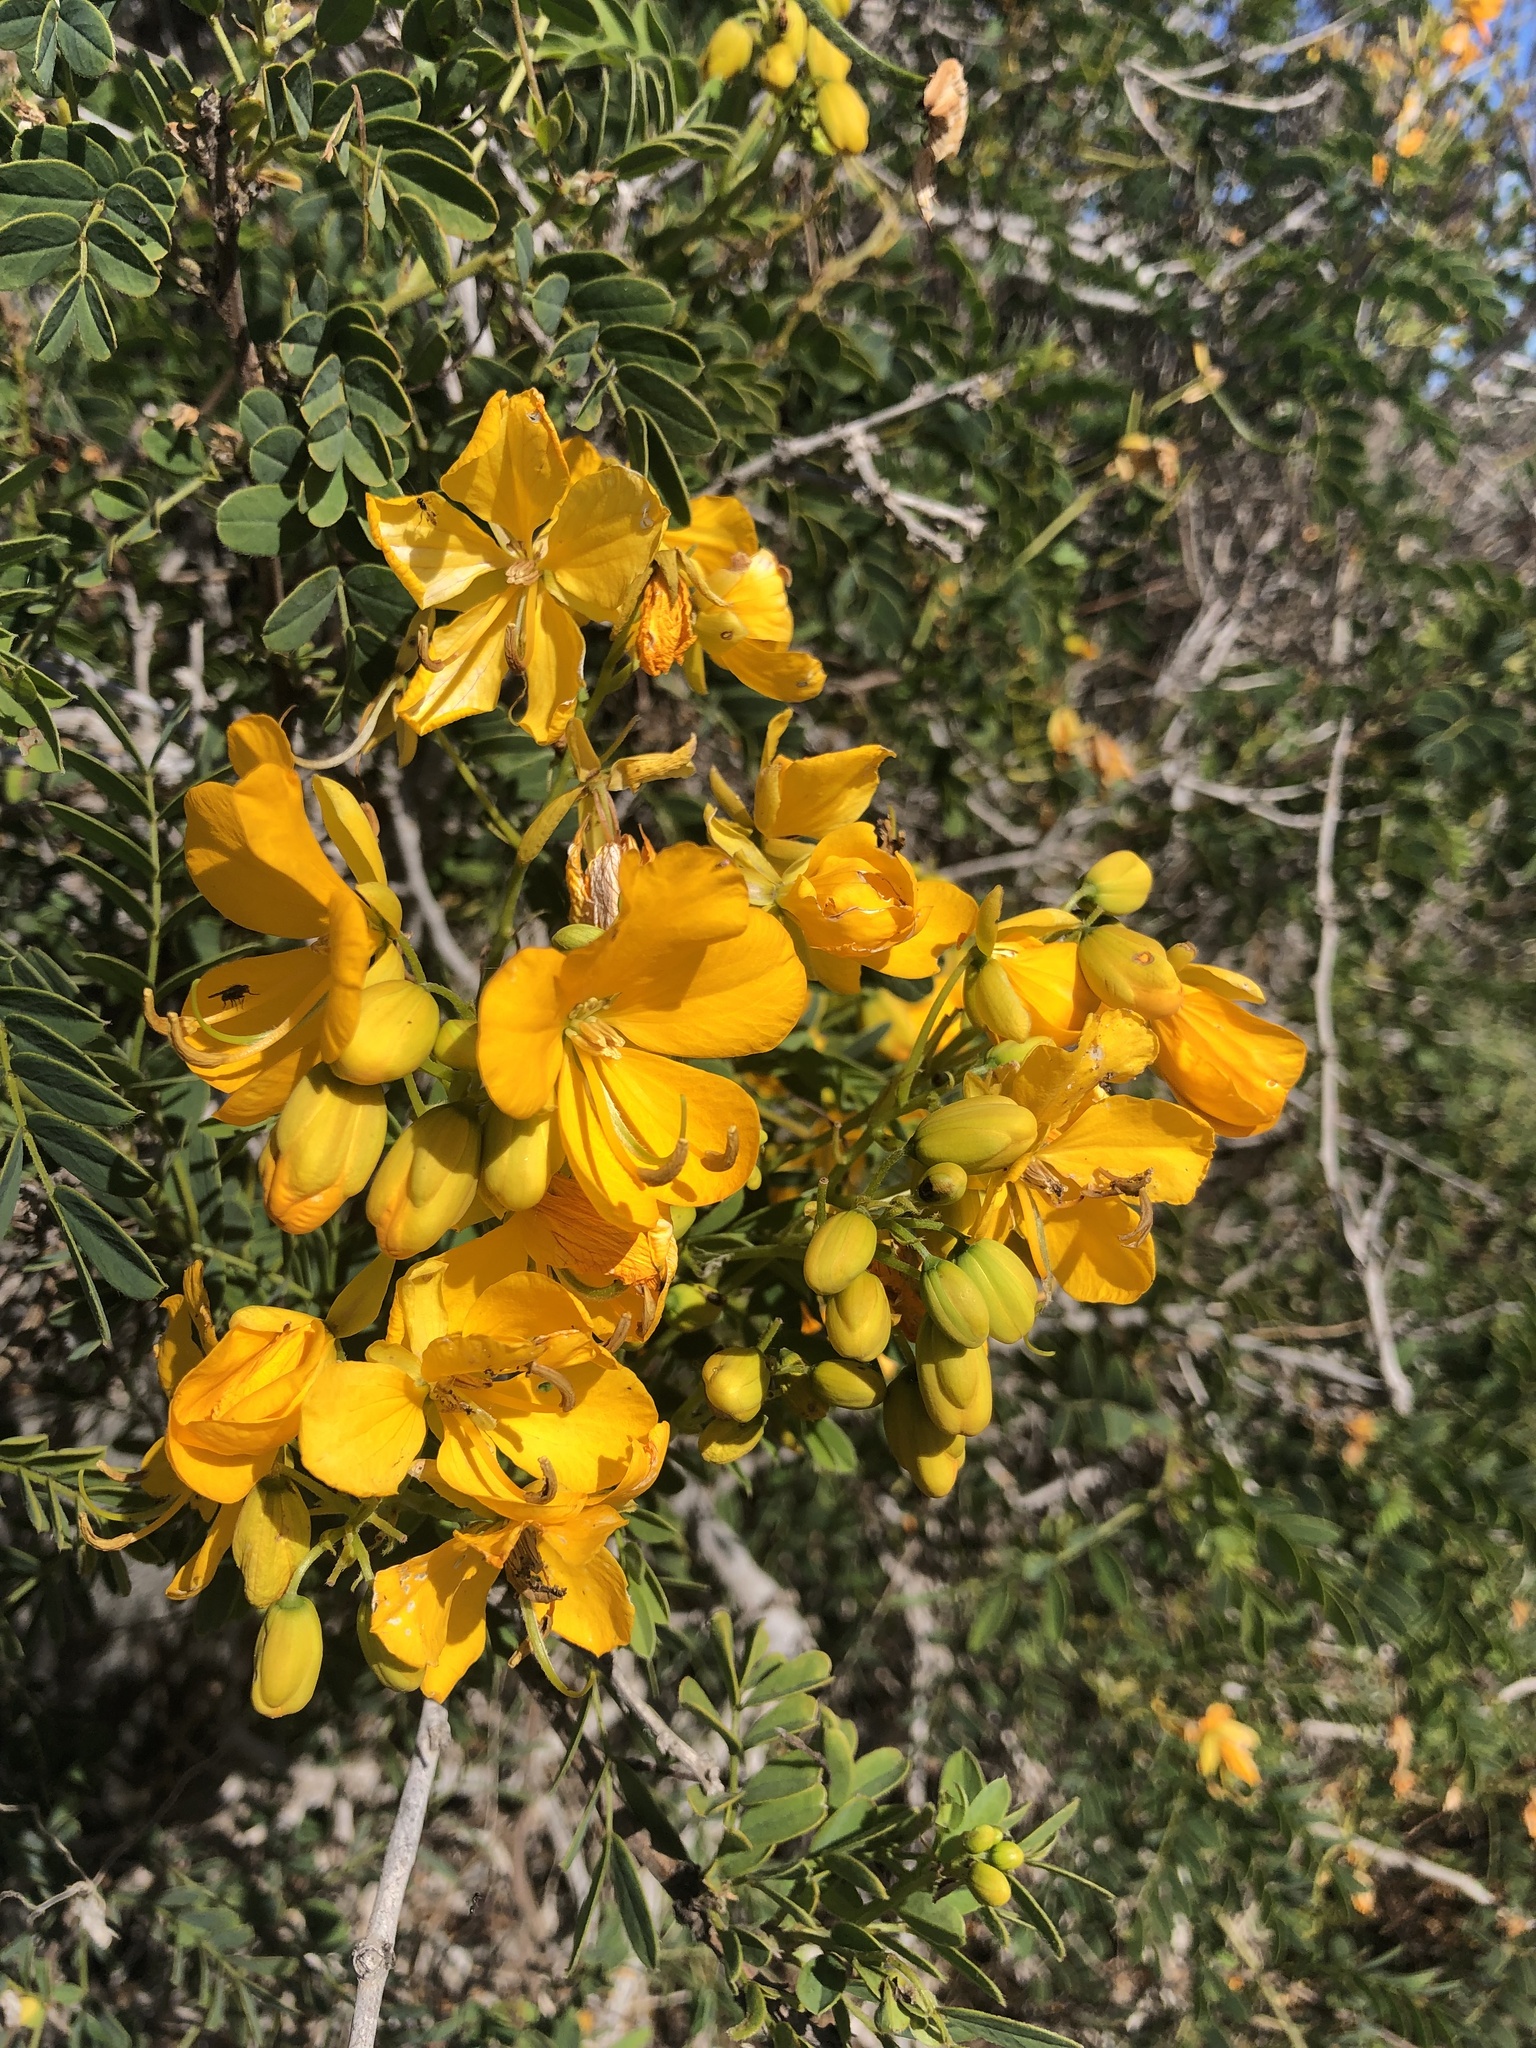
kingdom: Plantae
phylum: Tracheophyta
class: Magnoliopsida
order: Fabales
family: Fabaceae
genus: Senna
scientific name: Senna cumingii
